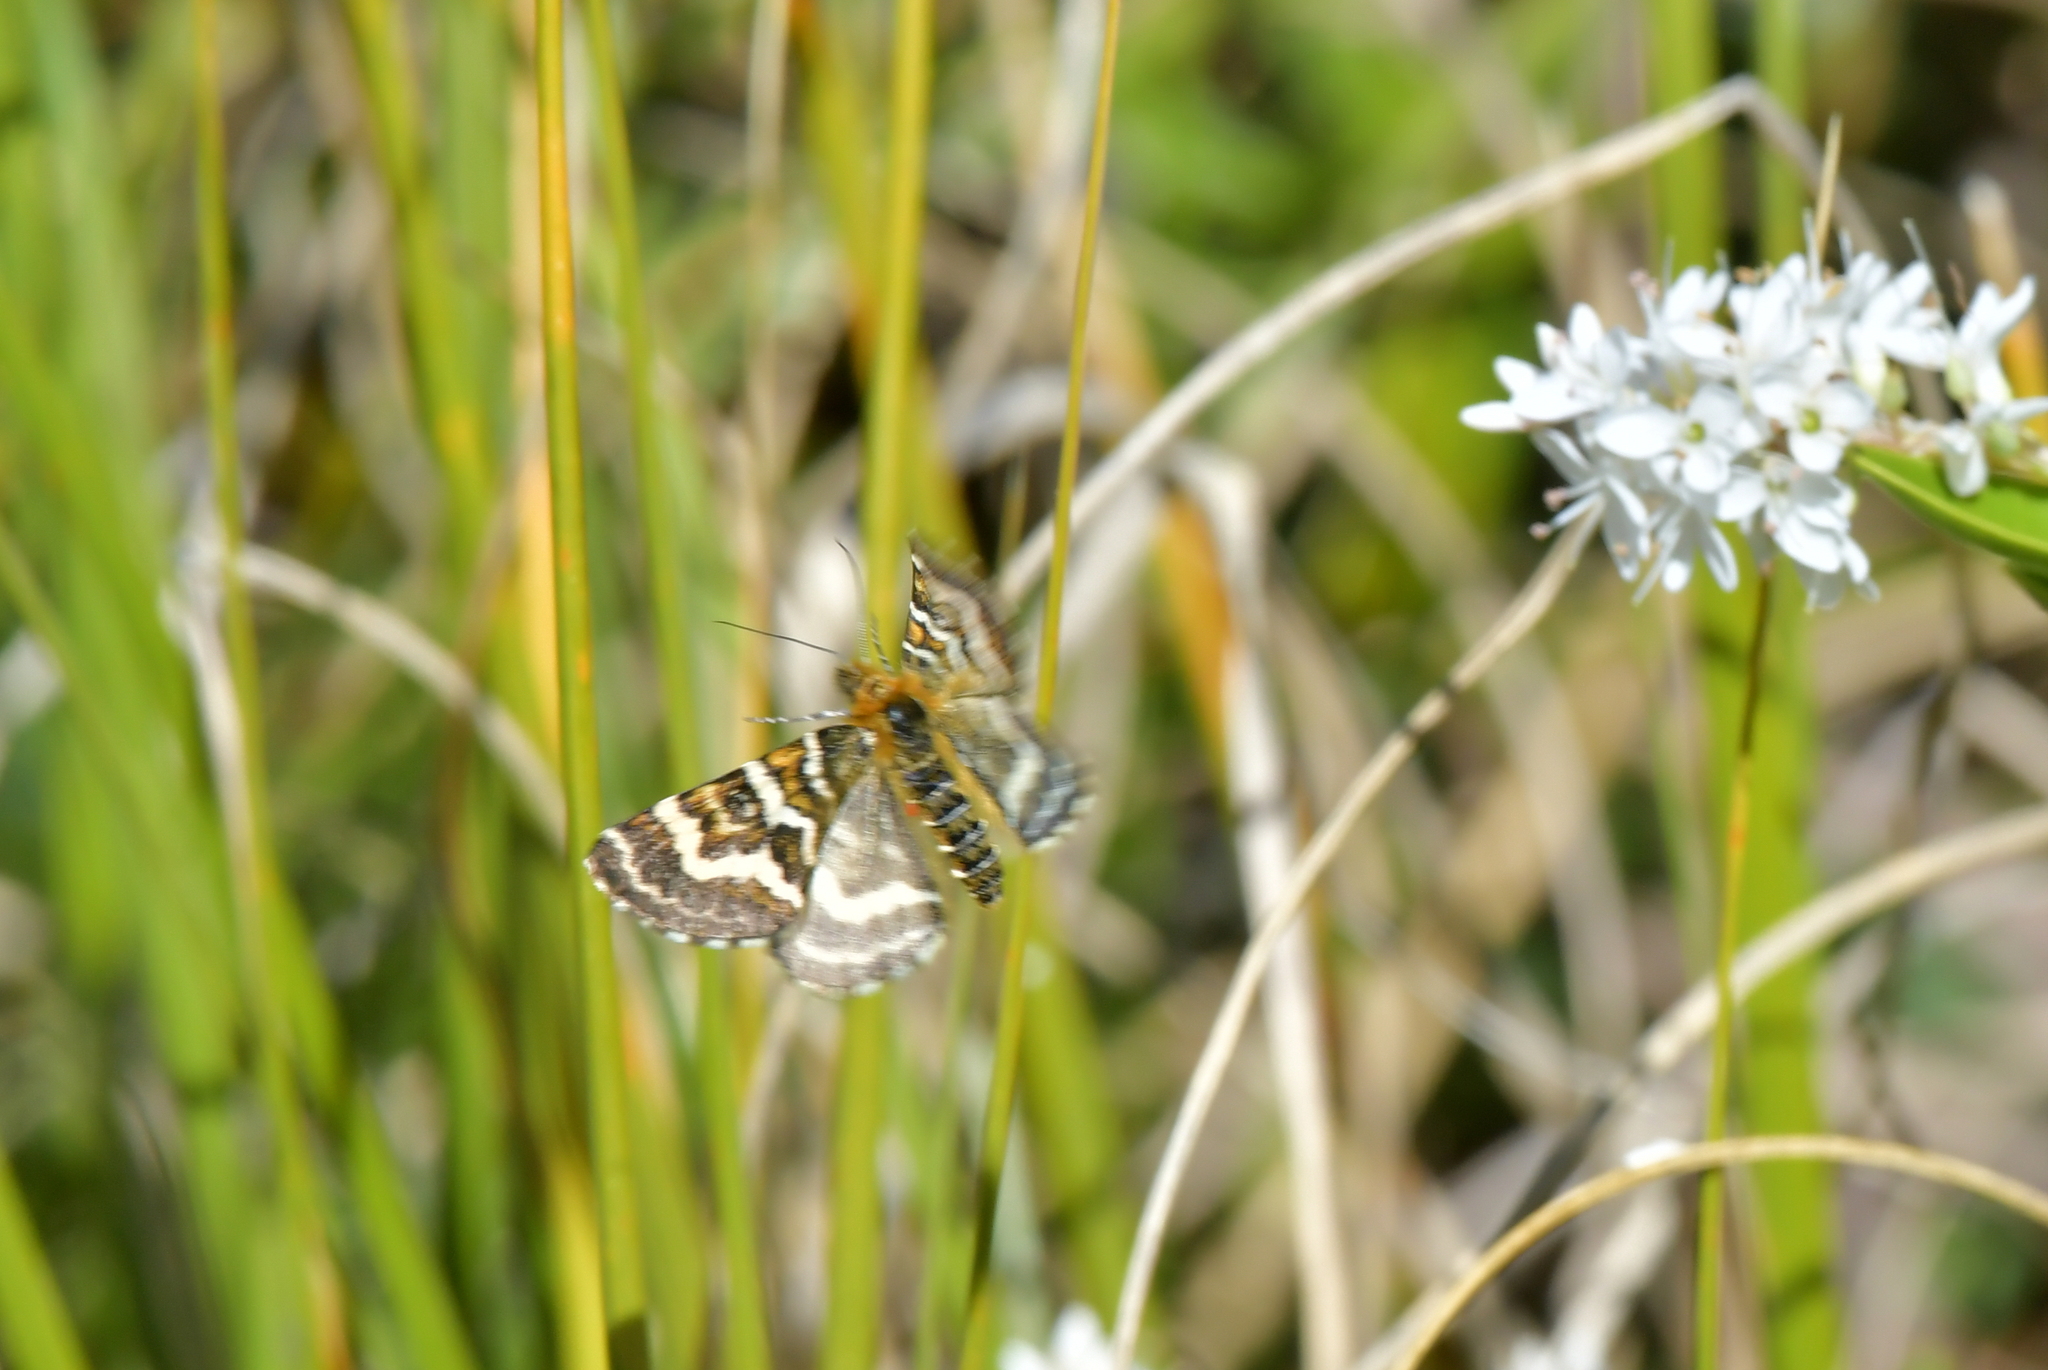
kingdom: Animalia
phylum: Arthropoda
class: Insecta
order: Lepidoptera
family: Geometridae
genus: Dasyuris
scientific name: Dasyuris callicrena
